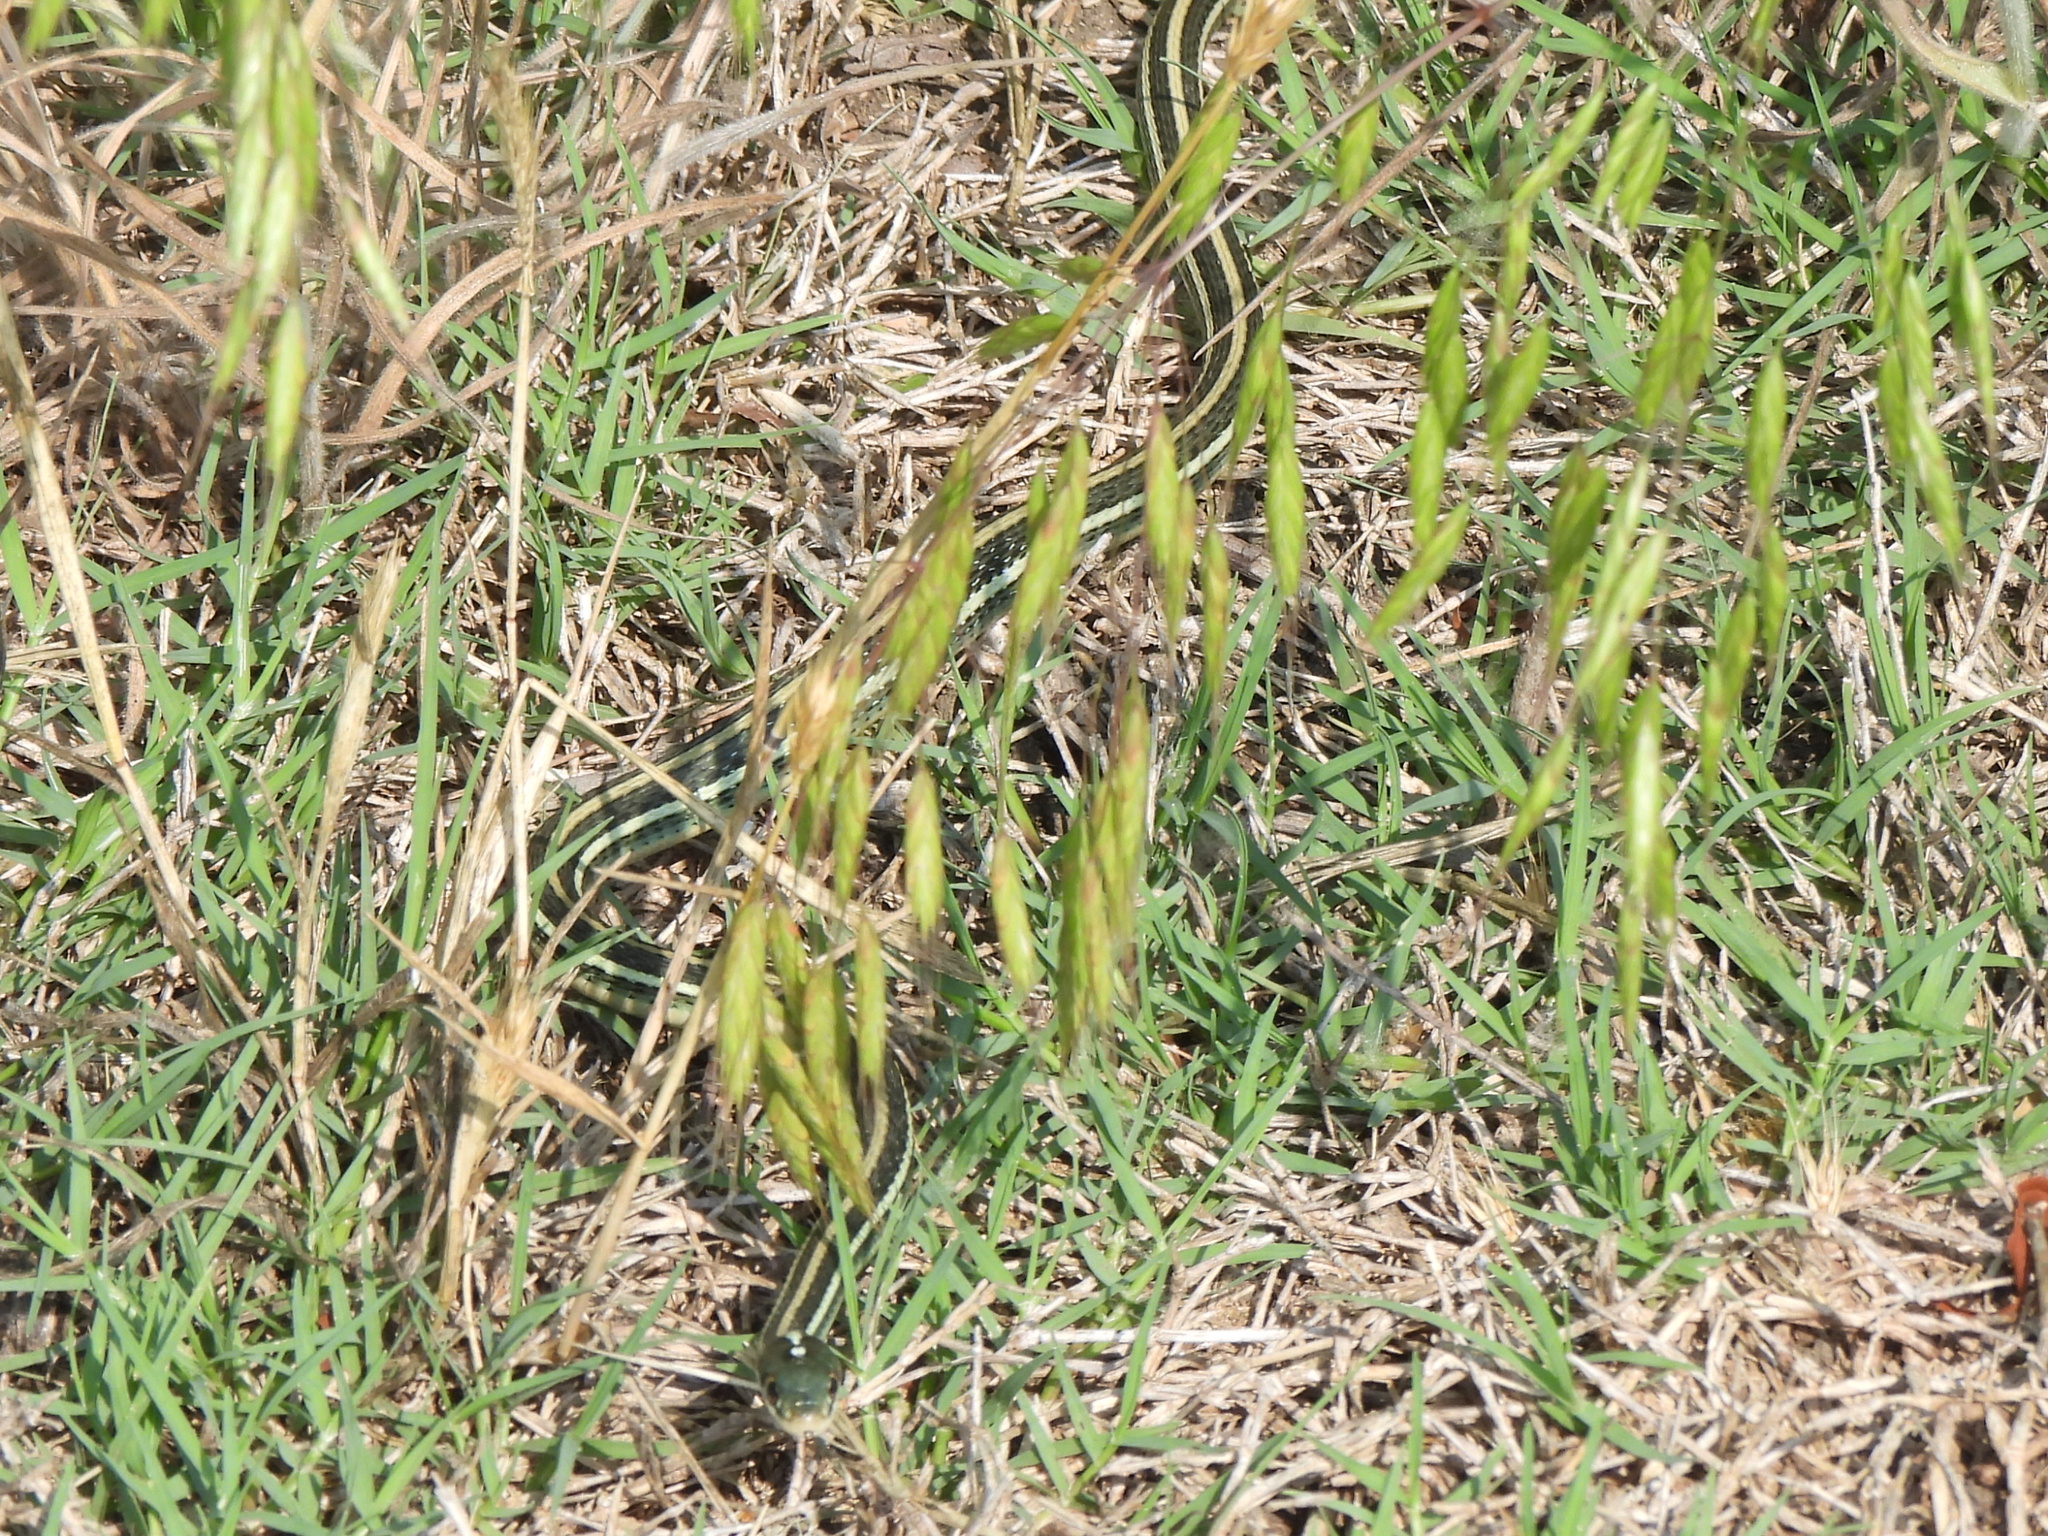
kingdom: Animalia
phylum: Chordata
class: Squamata
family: Colubridae
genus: Thamnophis
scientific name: Thamnophis proximus
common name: Western ribbon snake
